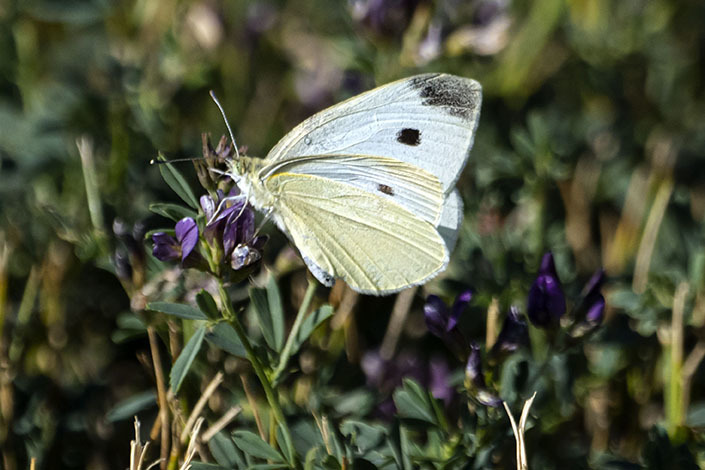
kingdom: Animalia
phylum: Arthropoda
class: Insecta
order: Lepidoptera
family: Pieridae
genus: Pieris
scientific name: Pieris rapae
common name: Small white
